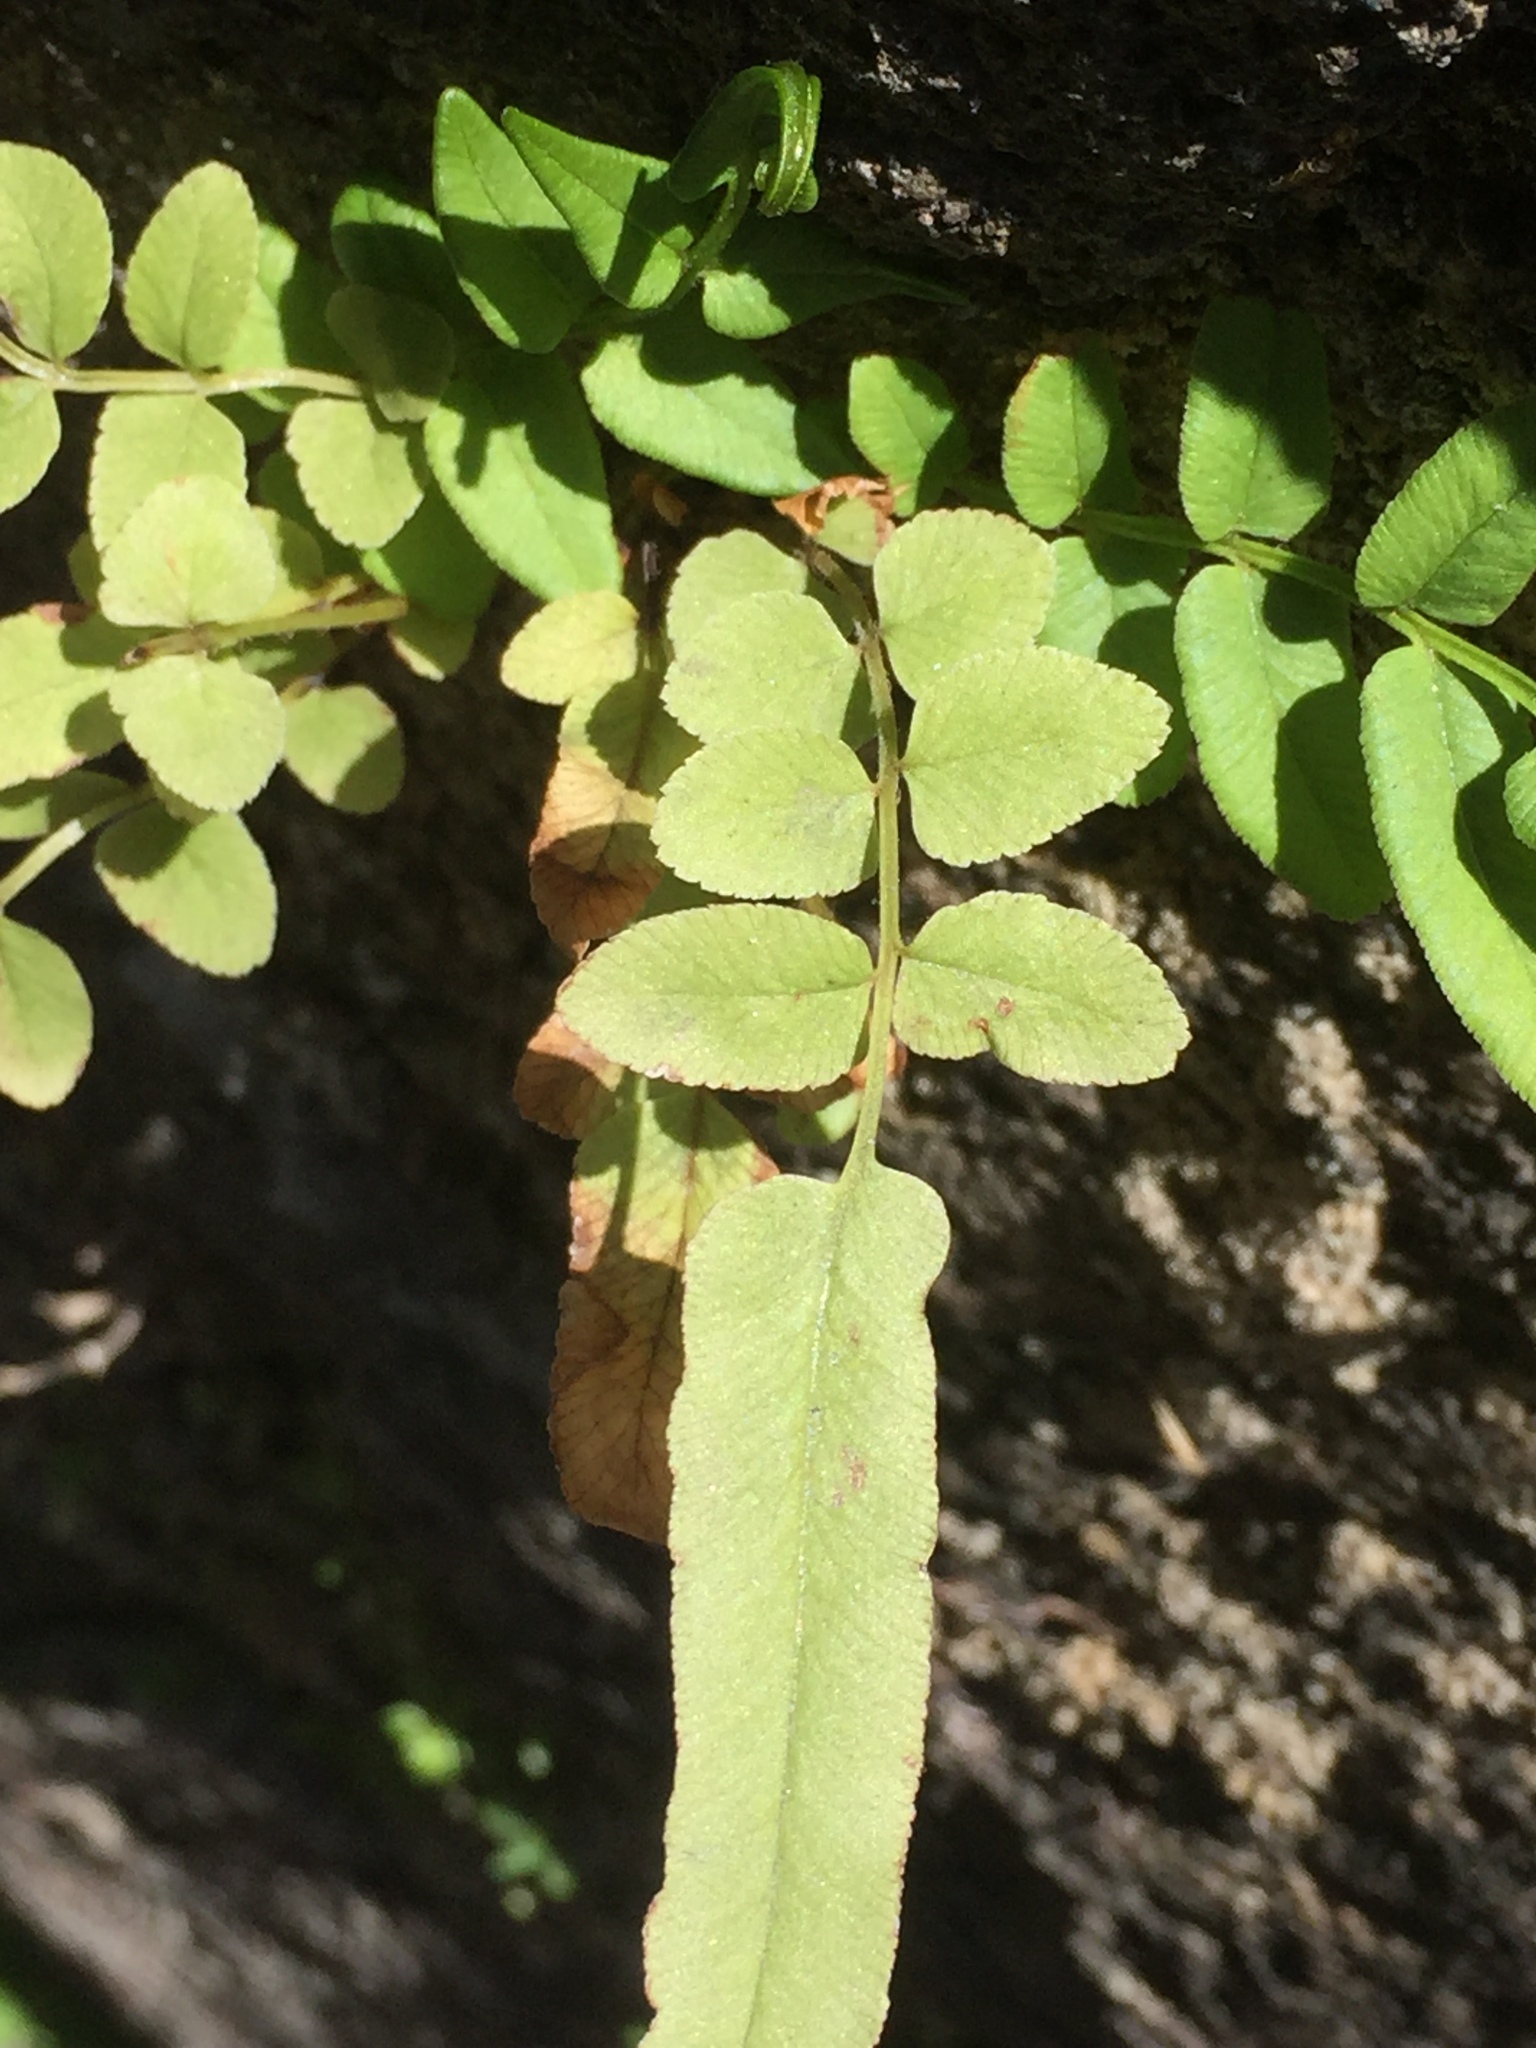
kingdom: Plantae
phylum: Tracheophyta
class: Polypodiopsida
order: Polypodiales
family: Pteridaceae
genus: Pteris
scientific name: Pteris vittata
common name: Ladder brake
